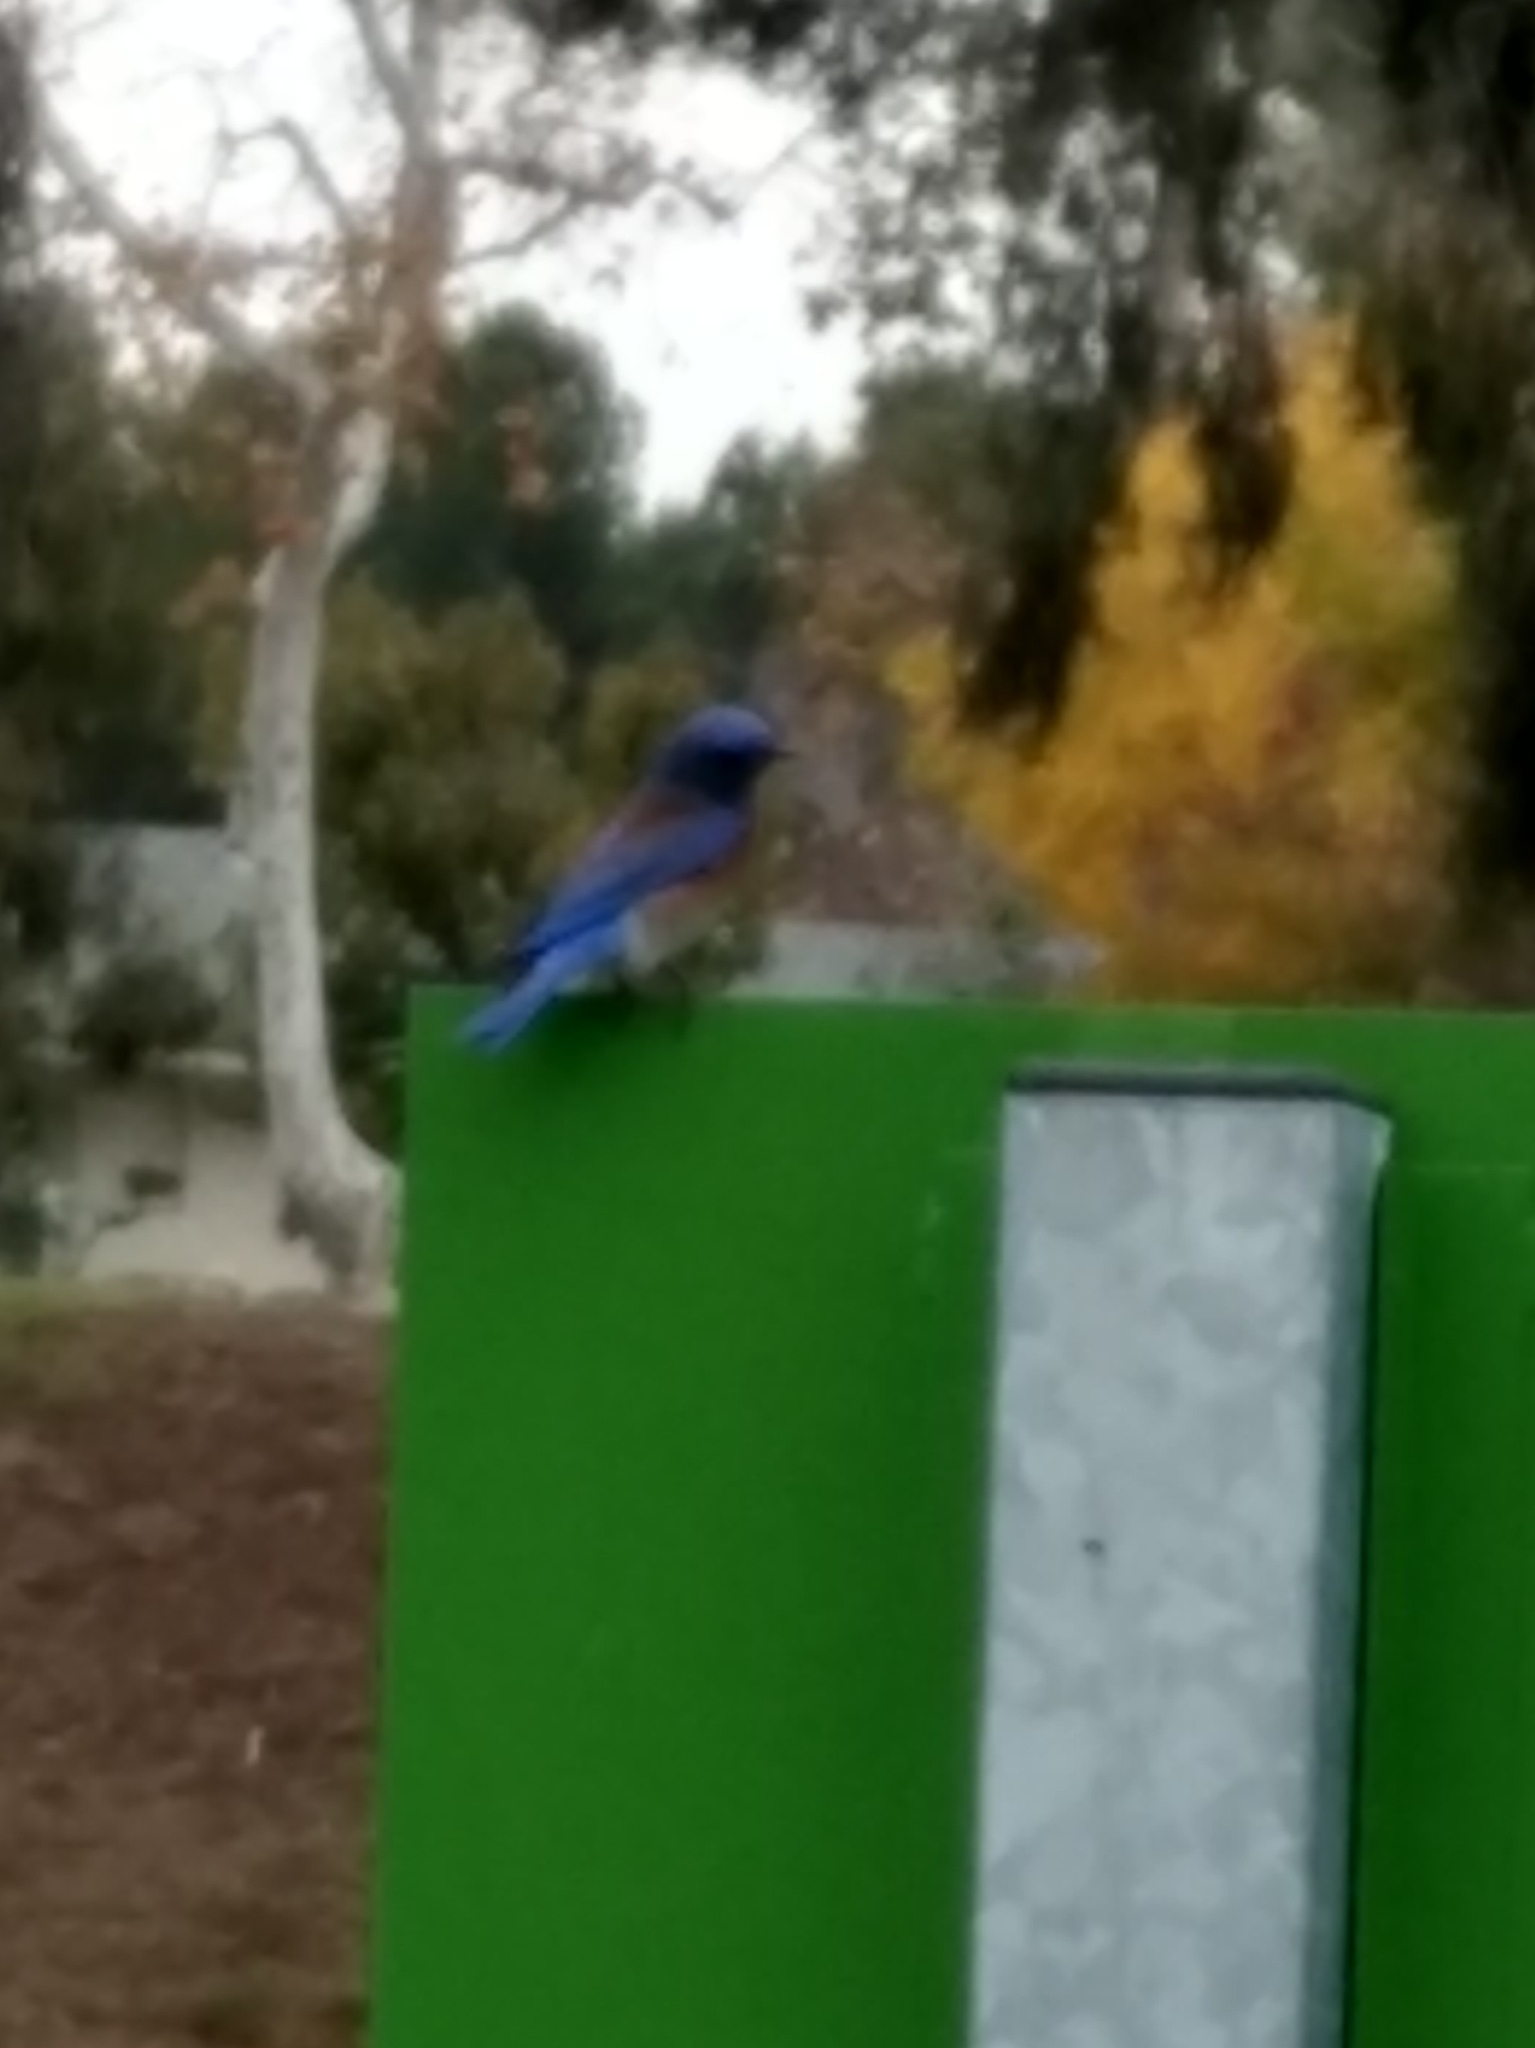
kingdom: Animalia
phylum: Chordata
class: Aves
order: Passeriformes
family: Turdidae
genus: Sialia
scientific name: Sialia mexicana
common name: Western bluebird
